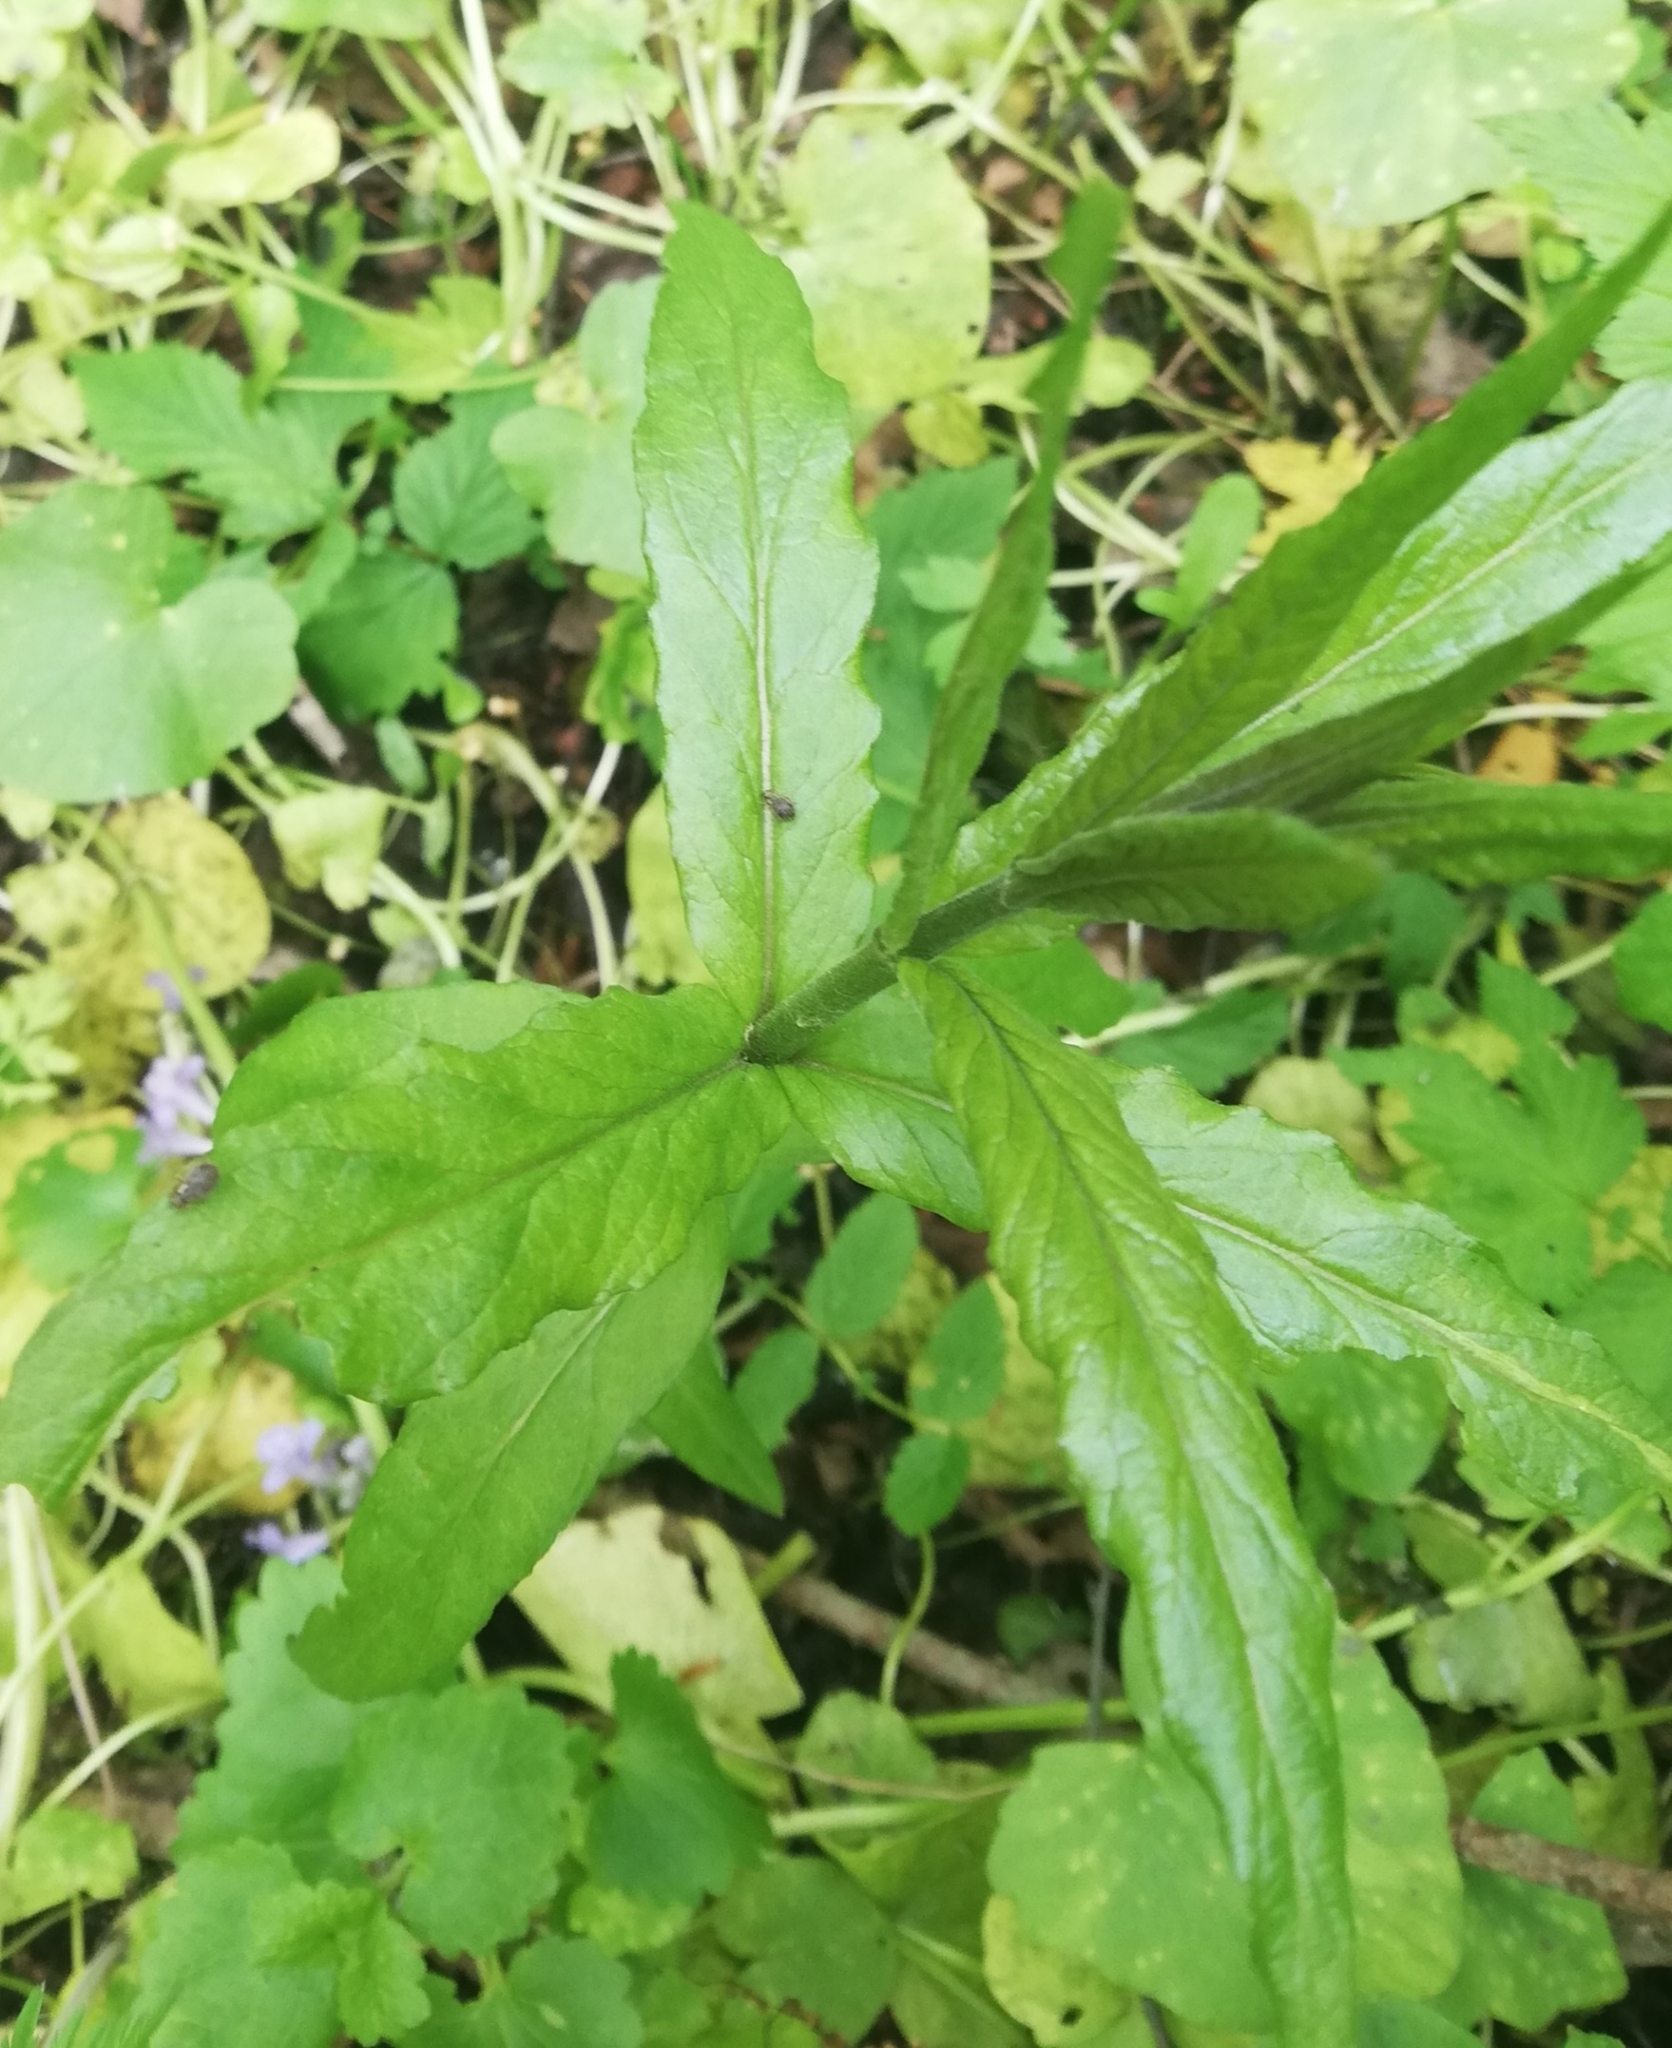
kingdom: Plantae
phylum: Tracheophyta
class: Magnoliopsida
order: Ericales
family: Primulaceae
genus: Lysimachia
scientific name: Lysimachia vulgaris
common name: Yellow loosestrife
